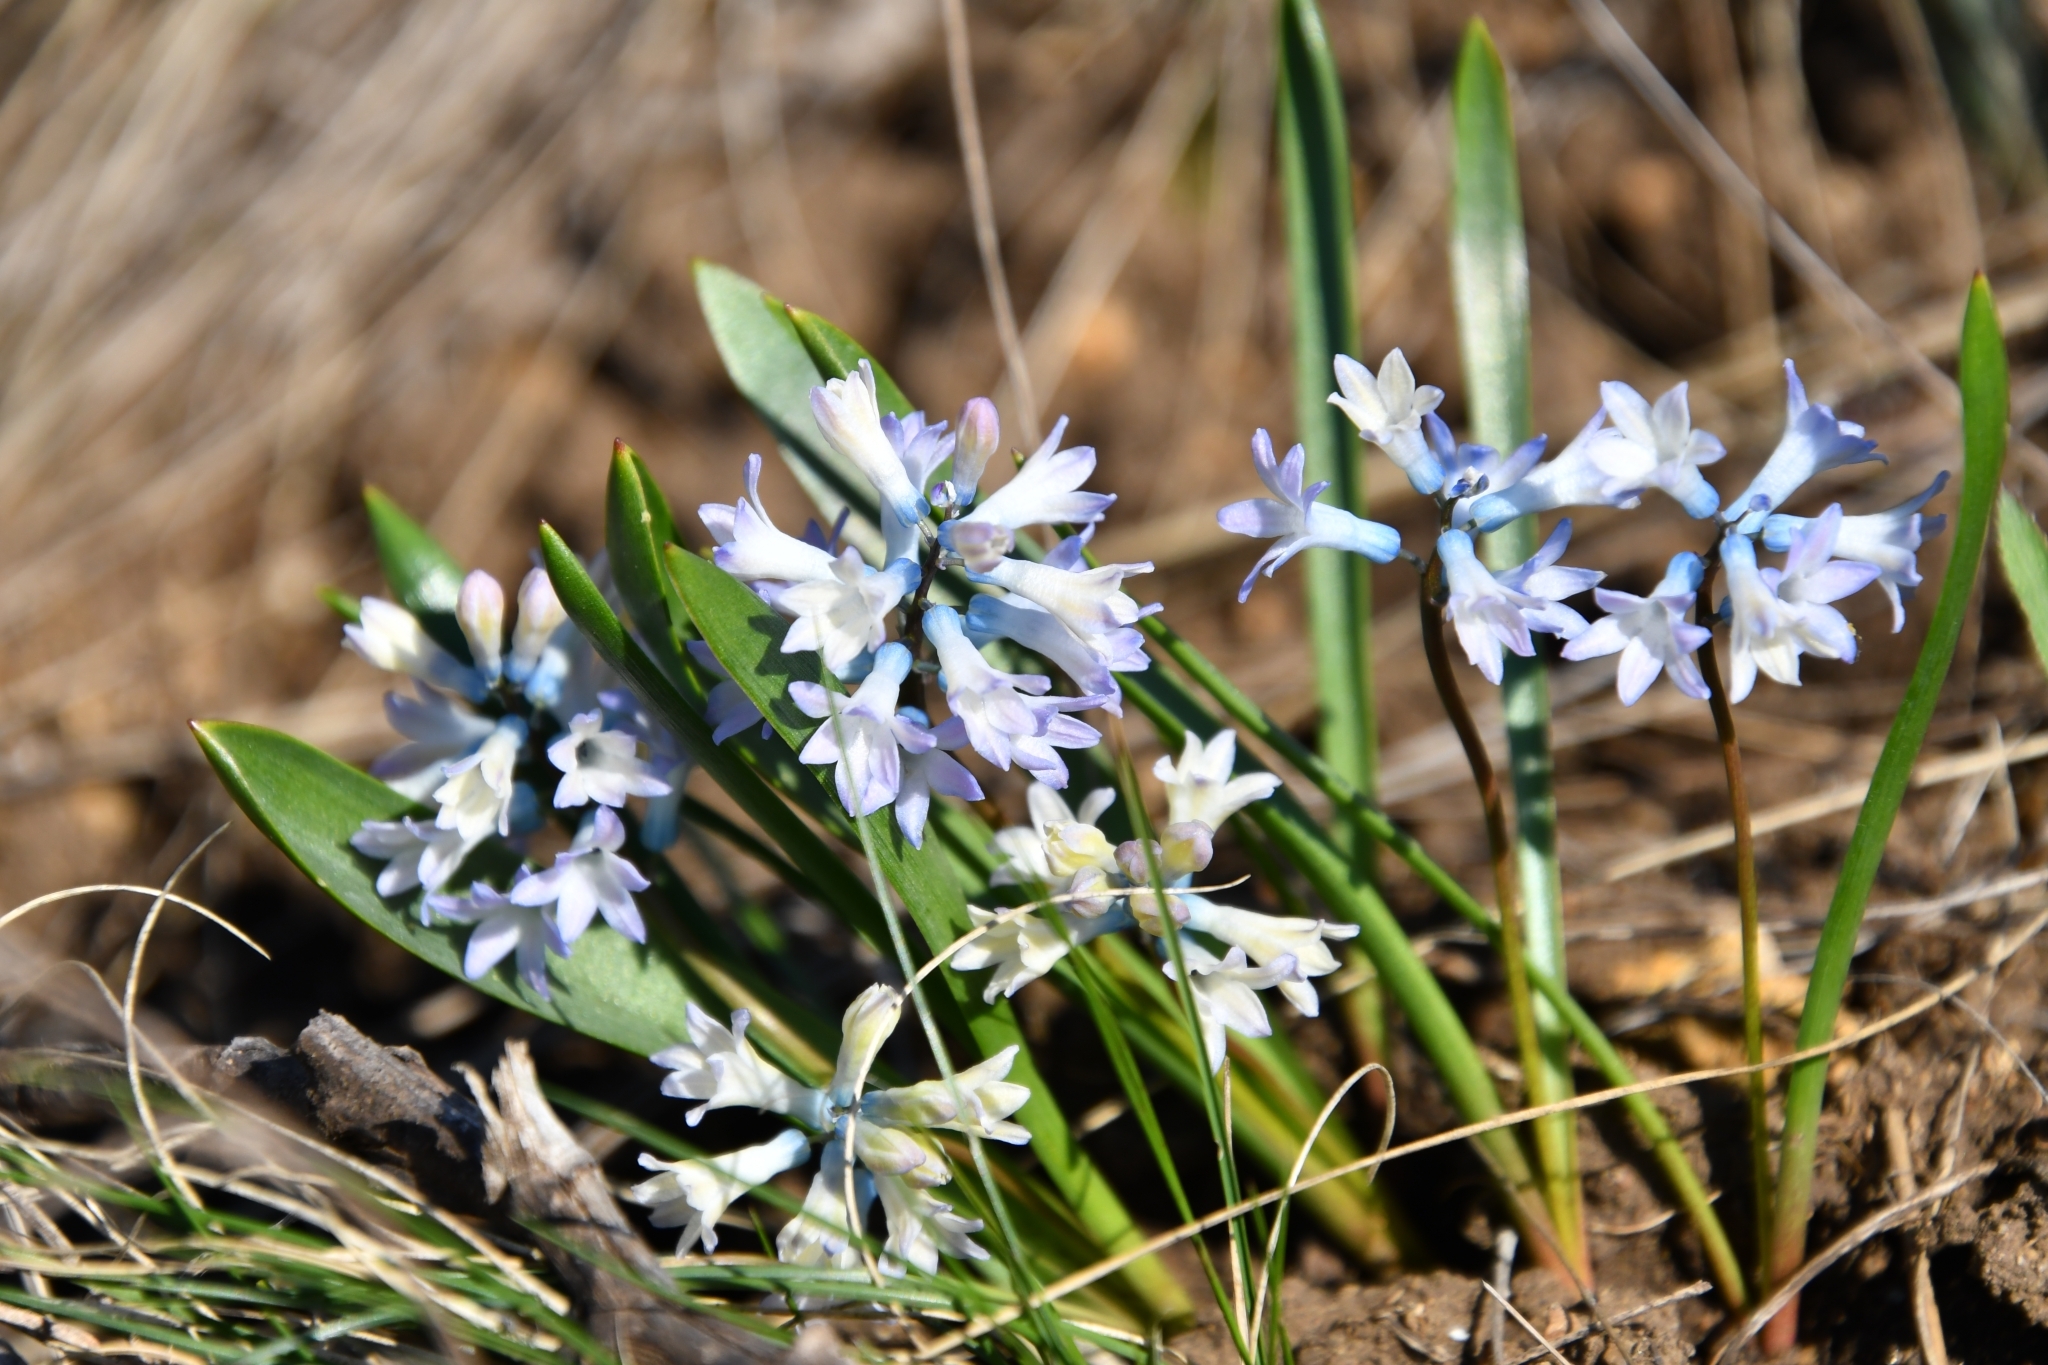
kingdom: Plantae
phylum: Tracheophyta
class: Liliopsida
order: Asparagales
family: Asparagaceae
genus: Hyacinthella
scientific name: Hyacinthella pallasiana
